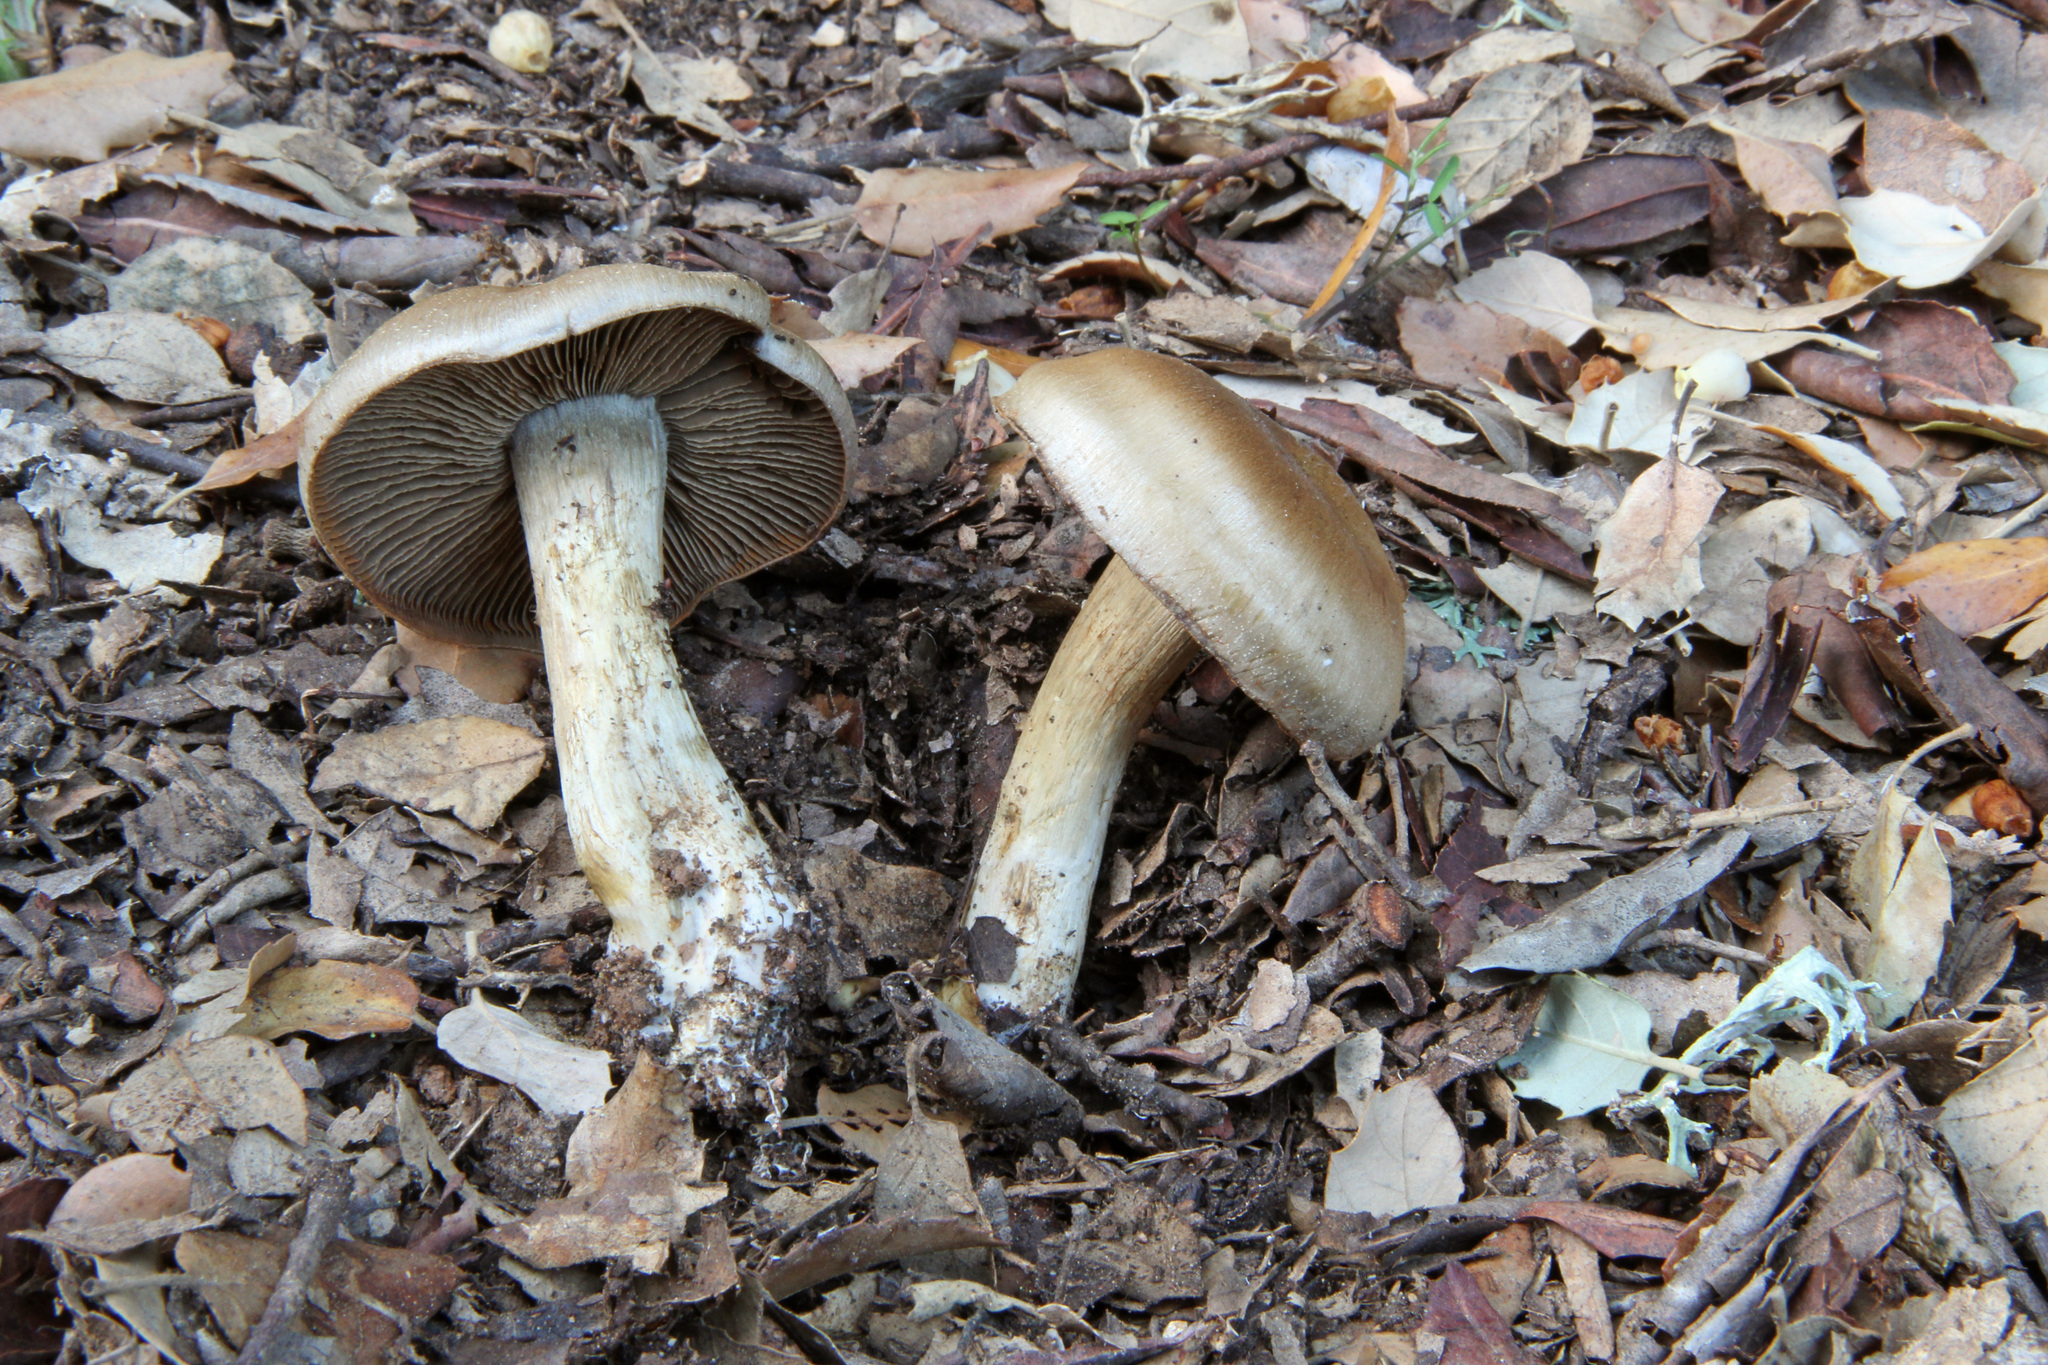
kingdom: Fungi
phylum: Basidiomycota
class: Agaricomycetes
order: Agaricales
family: Cortinariaceae
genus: Cortinarius
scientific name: Cortinarius infractus
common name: Bitter webcap
